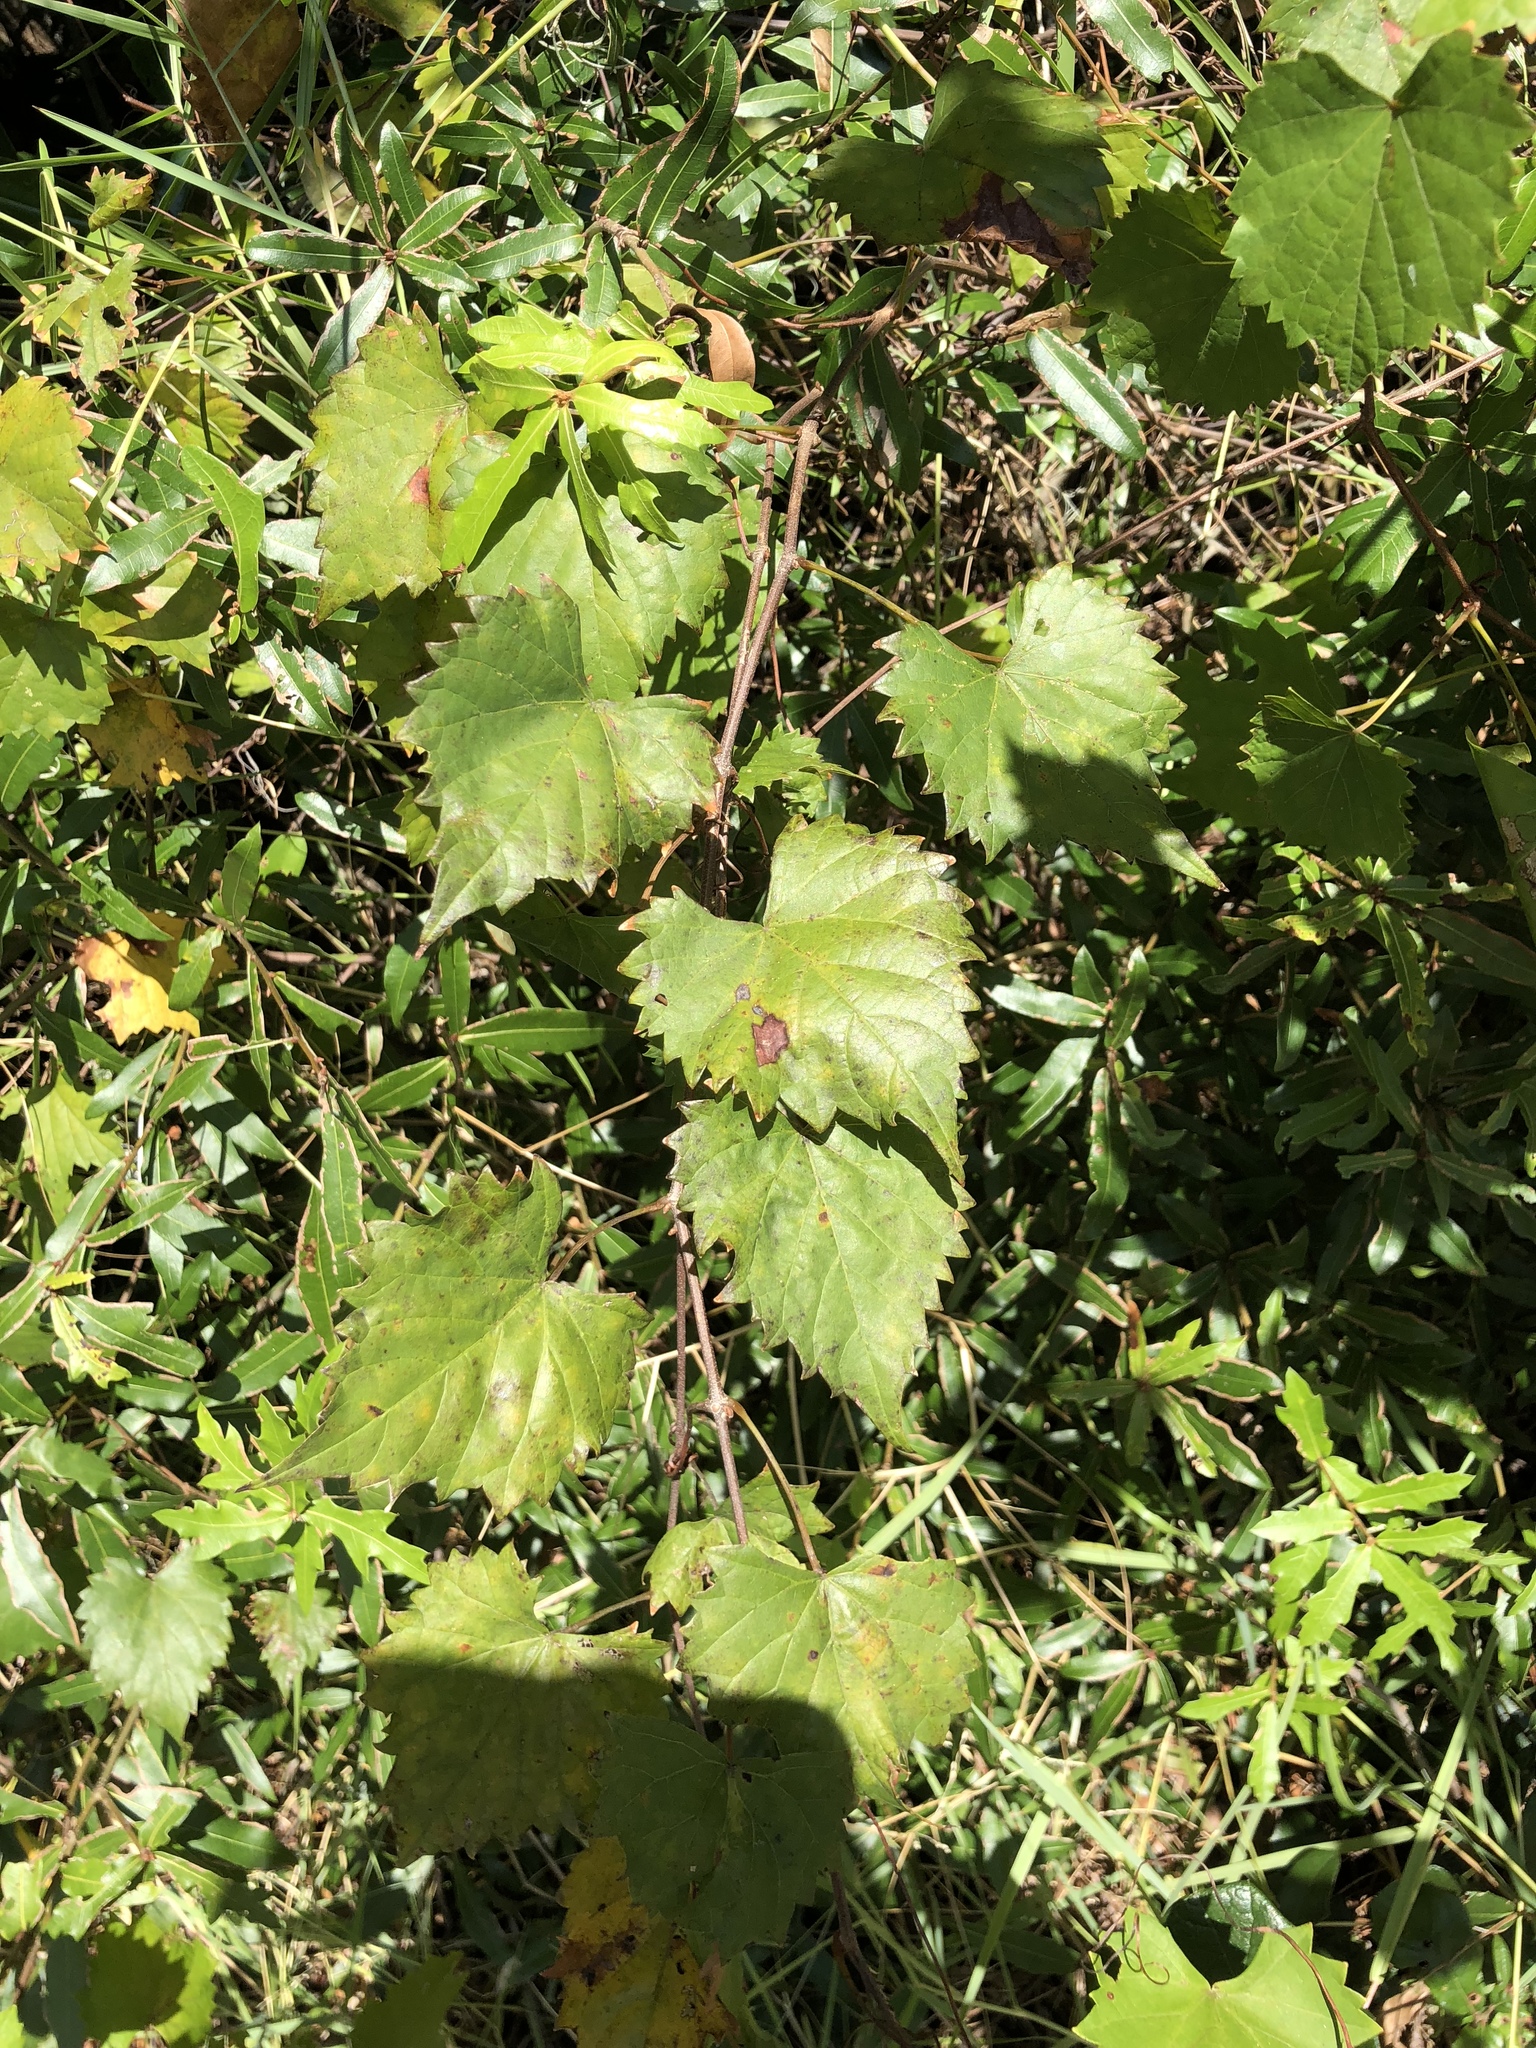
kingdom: Plantae
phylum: Tracheophyta
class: Magnoliopsida
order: Vitales
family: Vitaceae
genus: Vitis
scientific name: Vitis rotundifolia
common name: Muscadine grape
